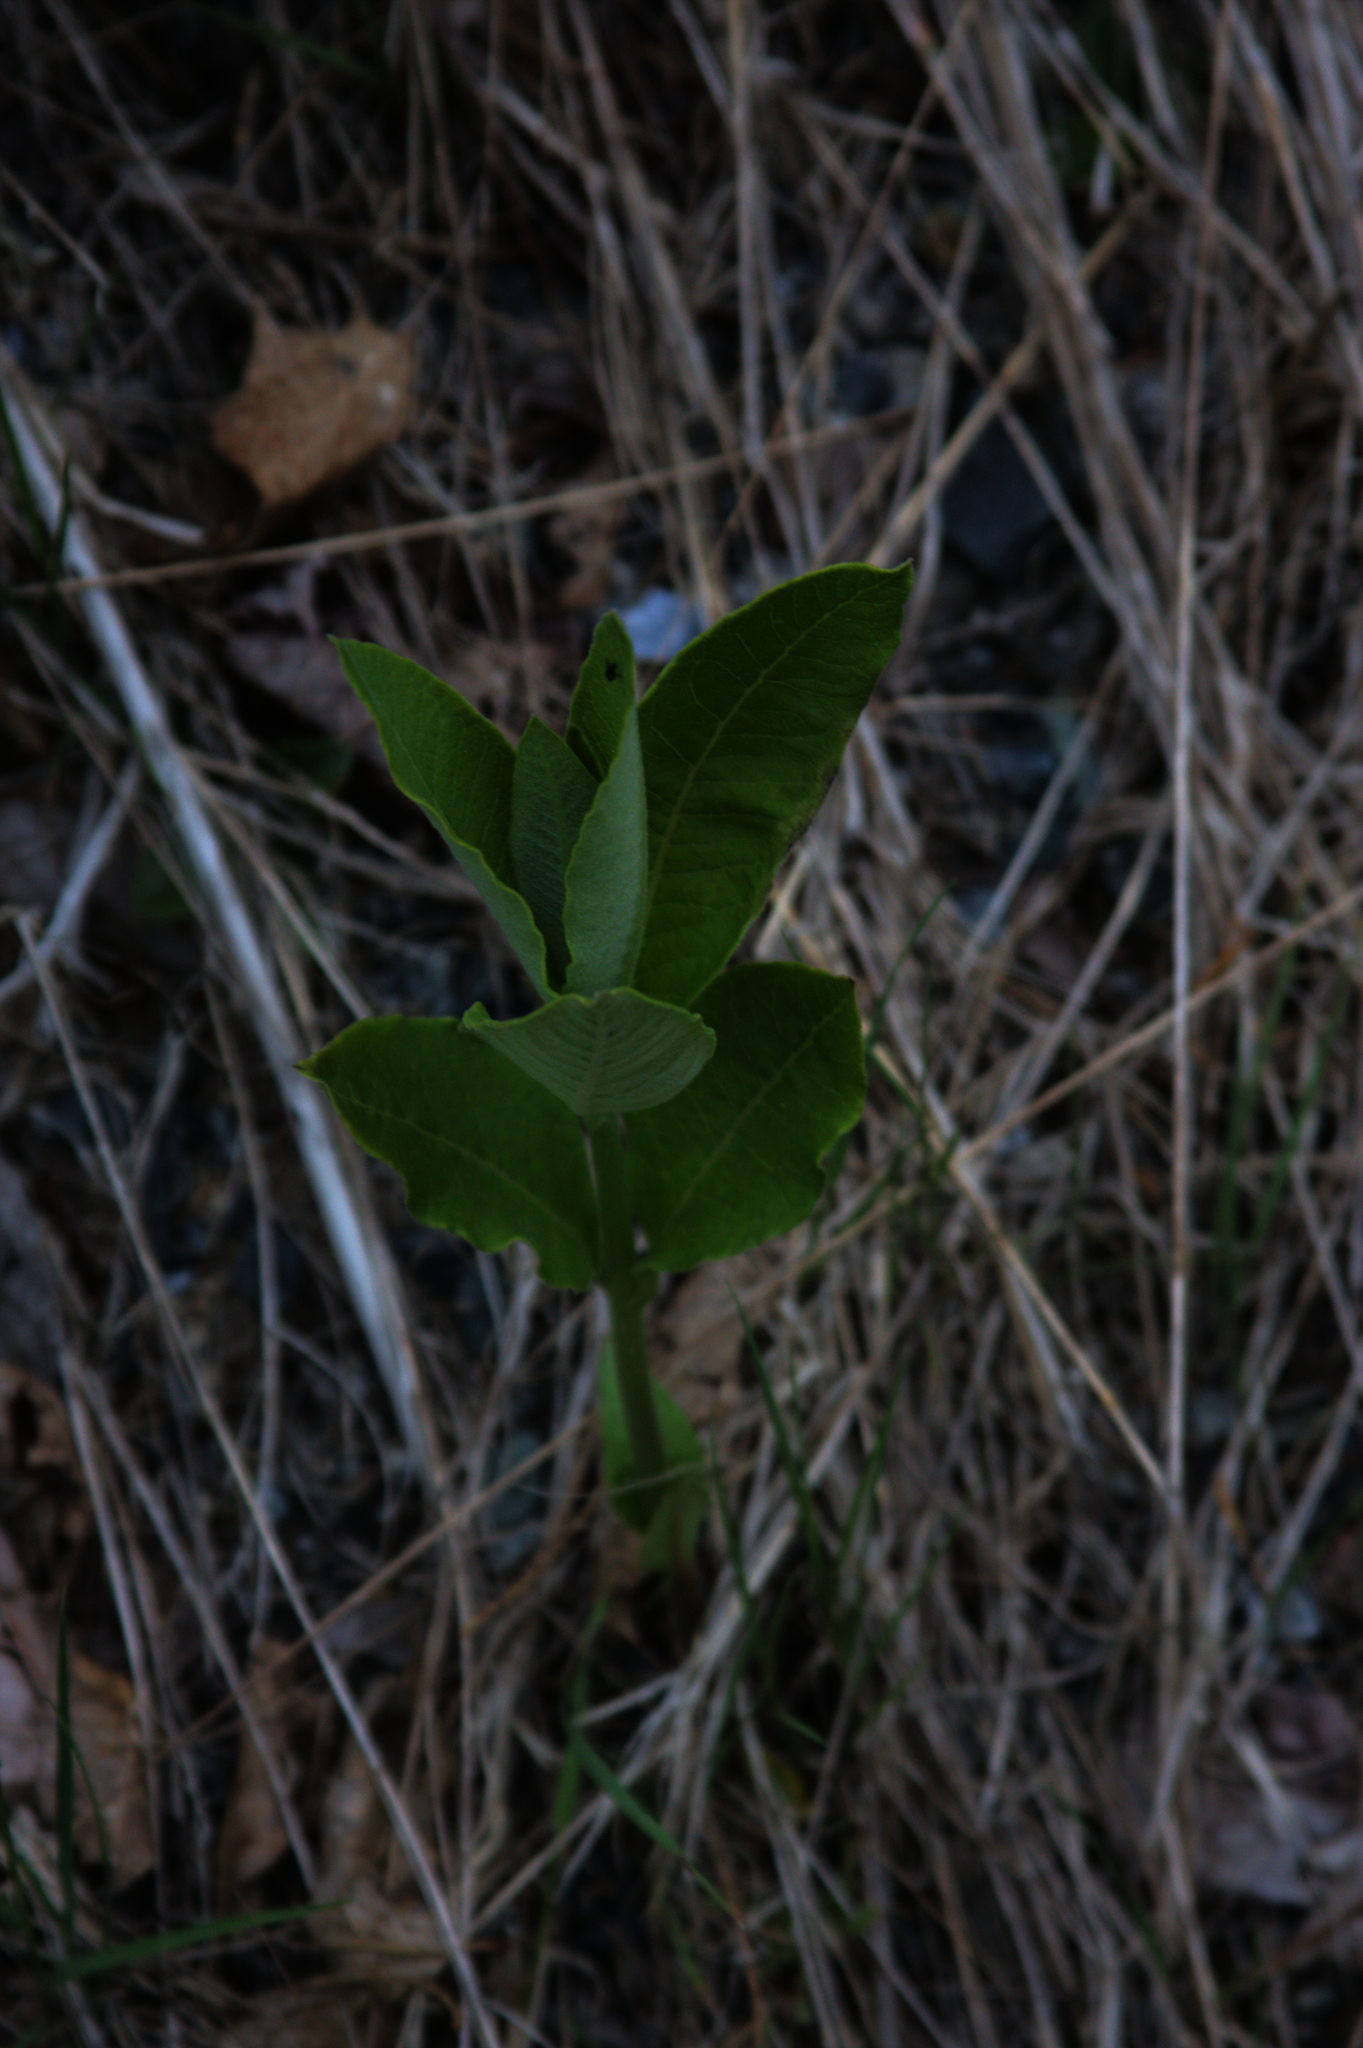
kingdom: Plantae
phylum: Tracheophyta
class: Magnoliopsida
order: Gentianales
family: Apocynaceae
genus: Asclepias
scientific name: Asclepias syriaca
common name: Common milkweed
